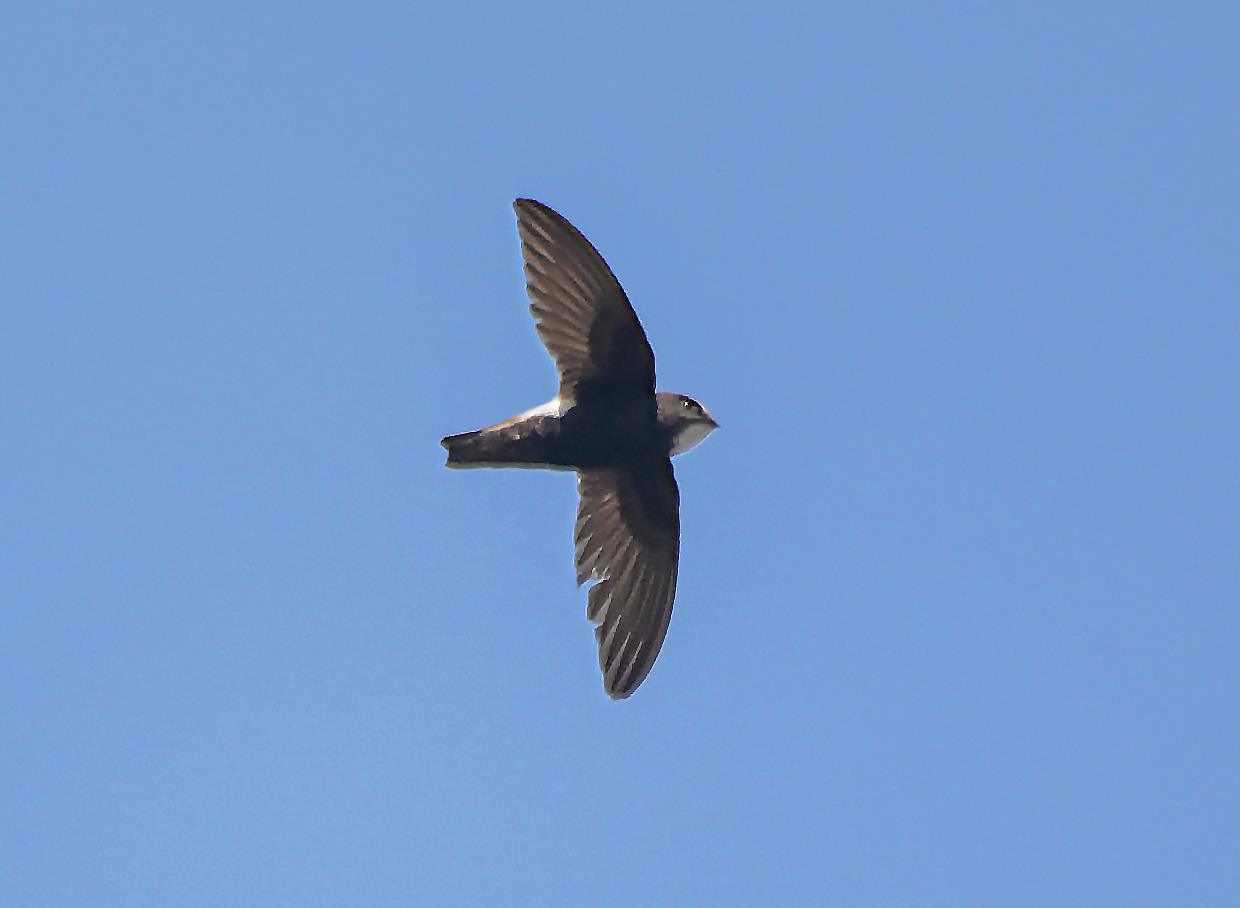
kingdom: Animalia
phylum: Chordata
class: Aves
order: Apodiformes
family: Apodidae
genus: Apus
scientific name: Apus affinis
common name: Little swift
